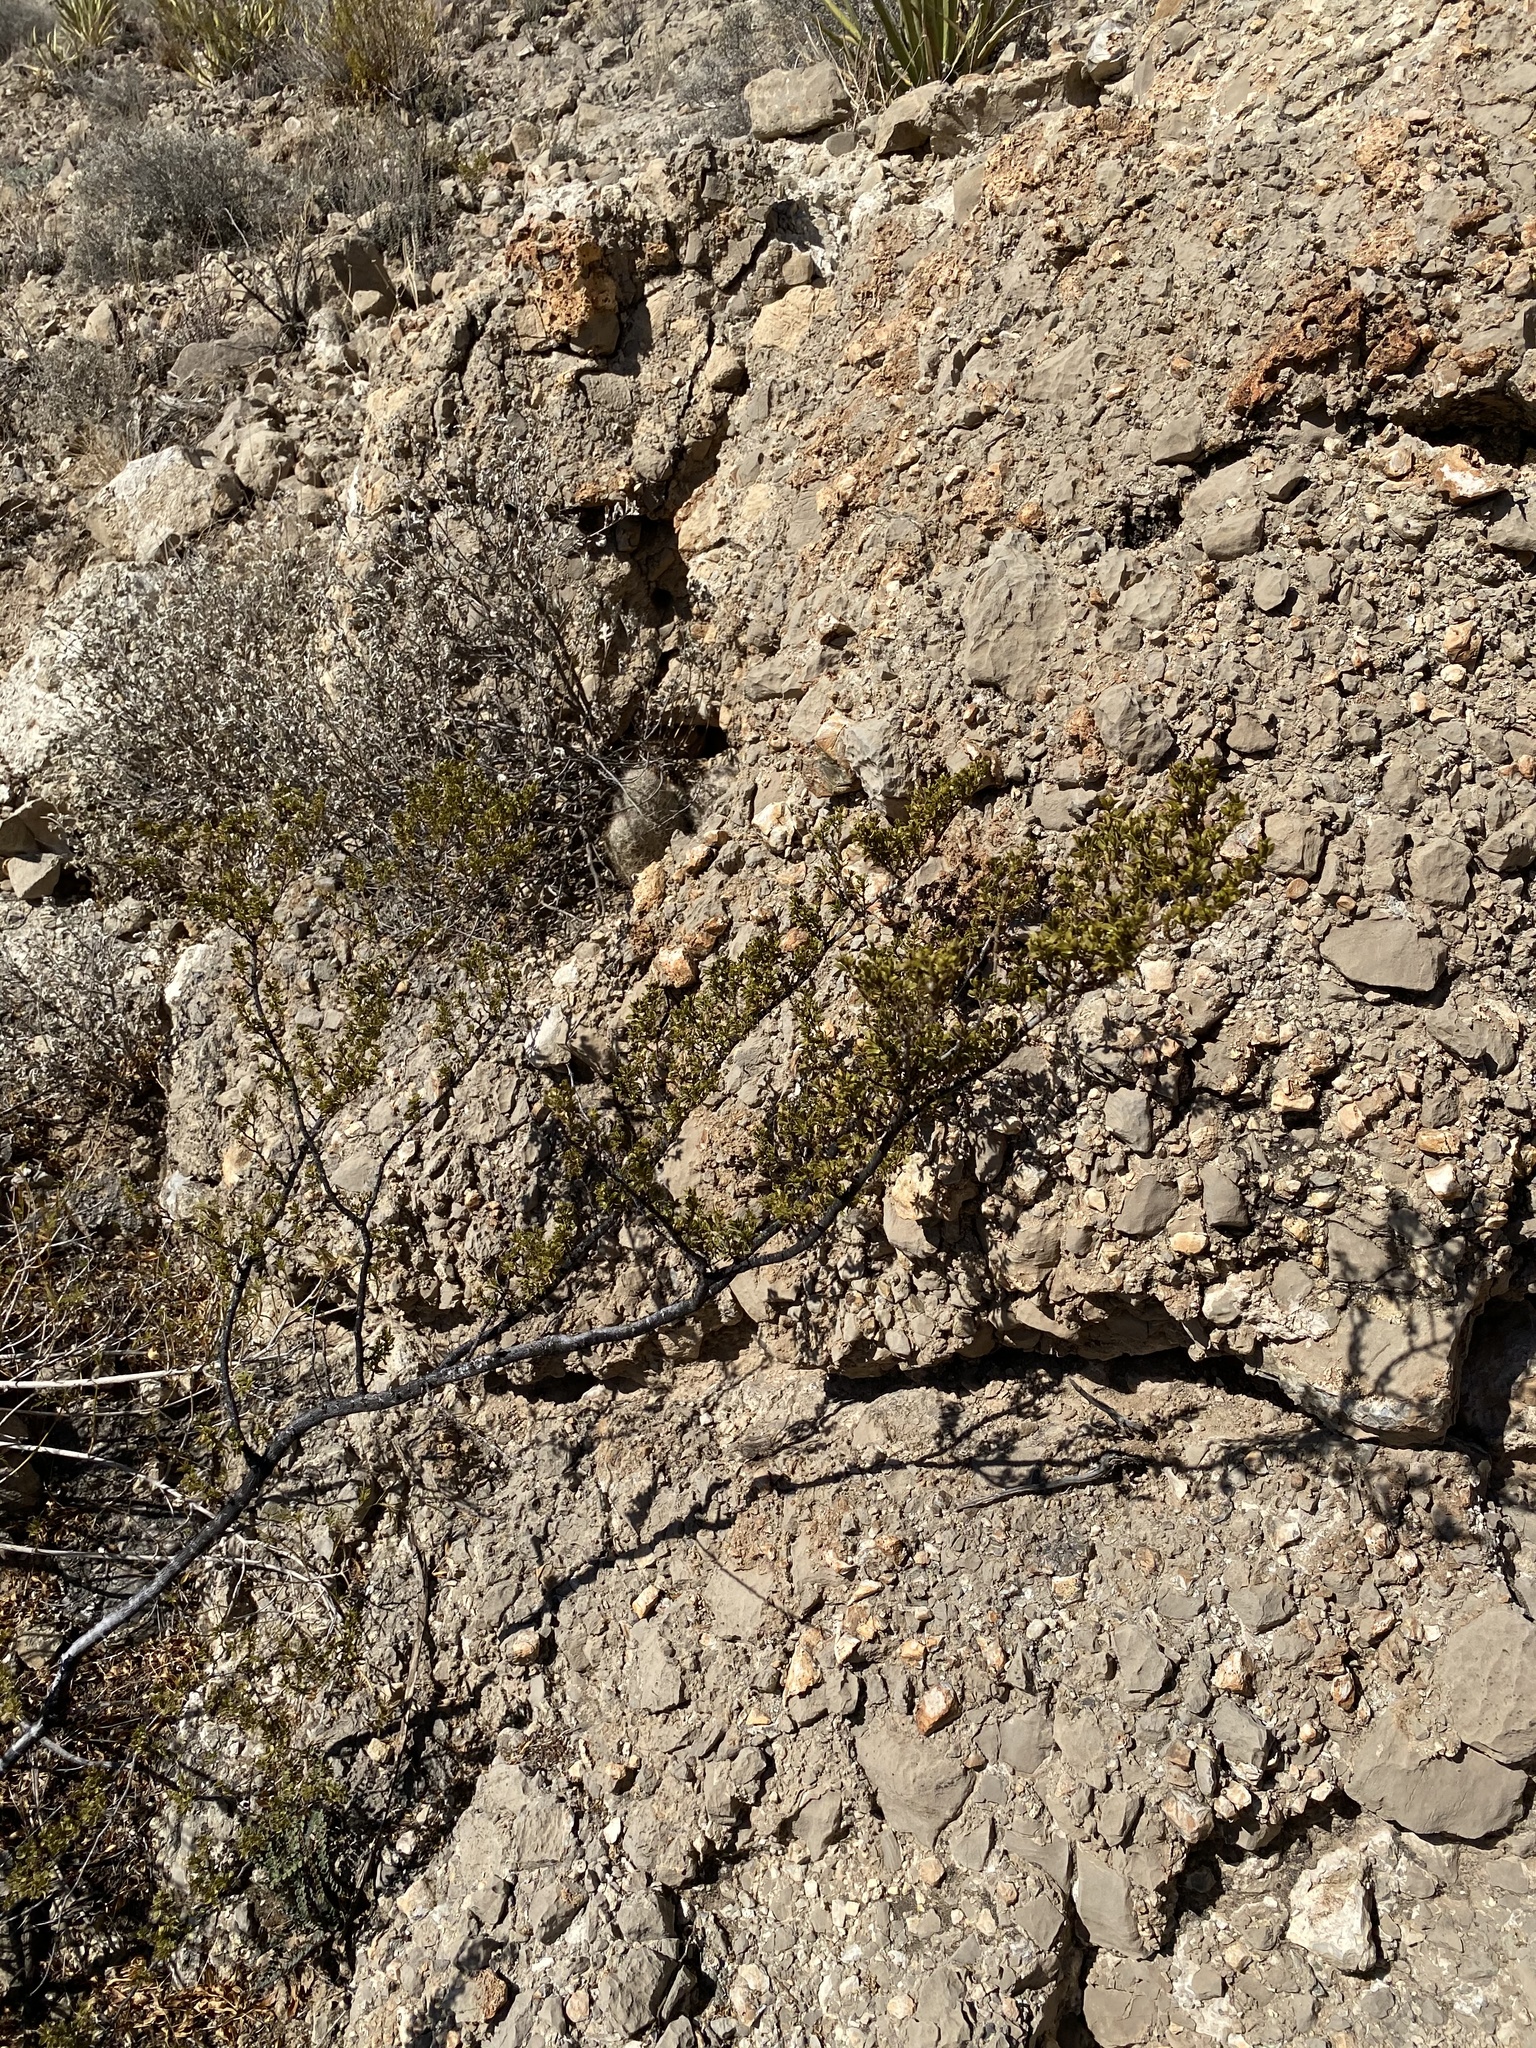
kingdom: Plantae
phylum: Tracheophyta
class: Magnoliopsida
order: Zygophyllales
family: Zygophyllaceae
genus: Larrea
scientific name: Larrea tridentata
